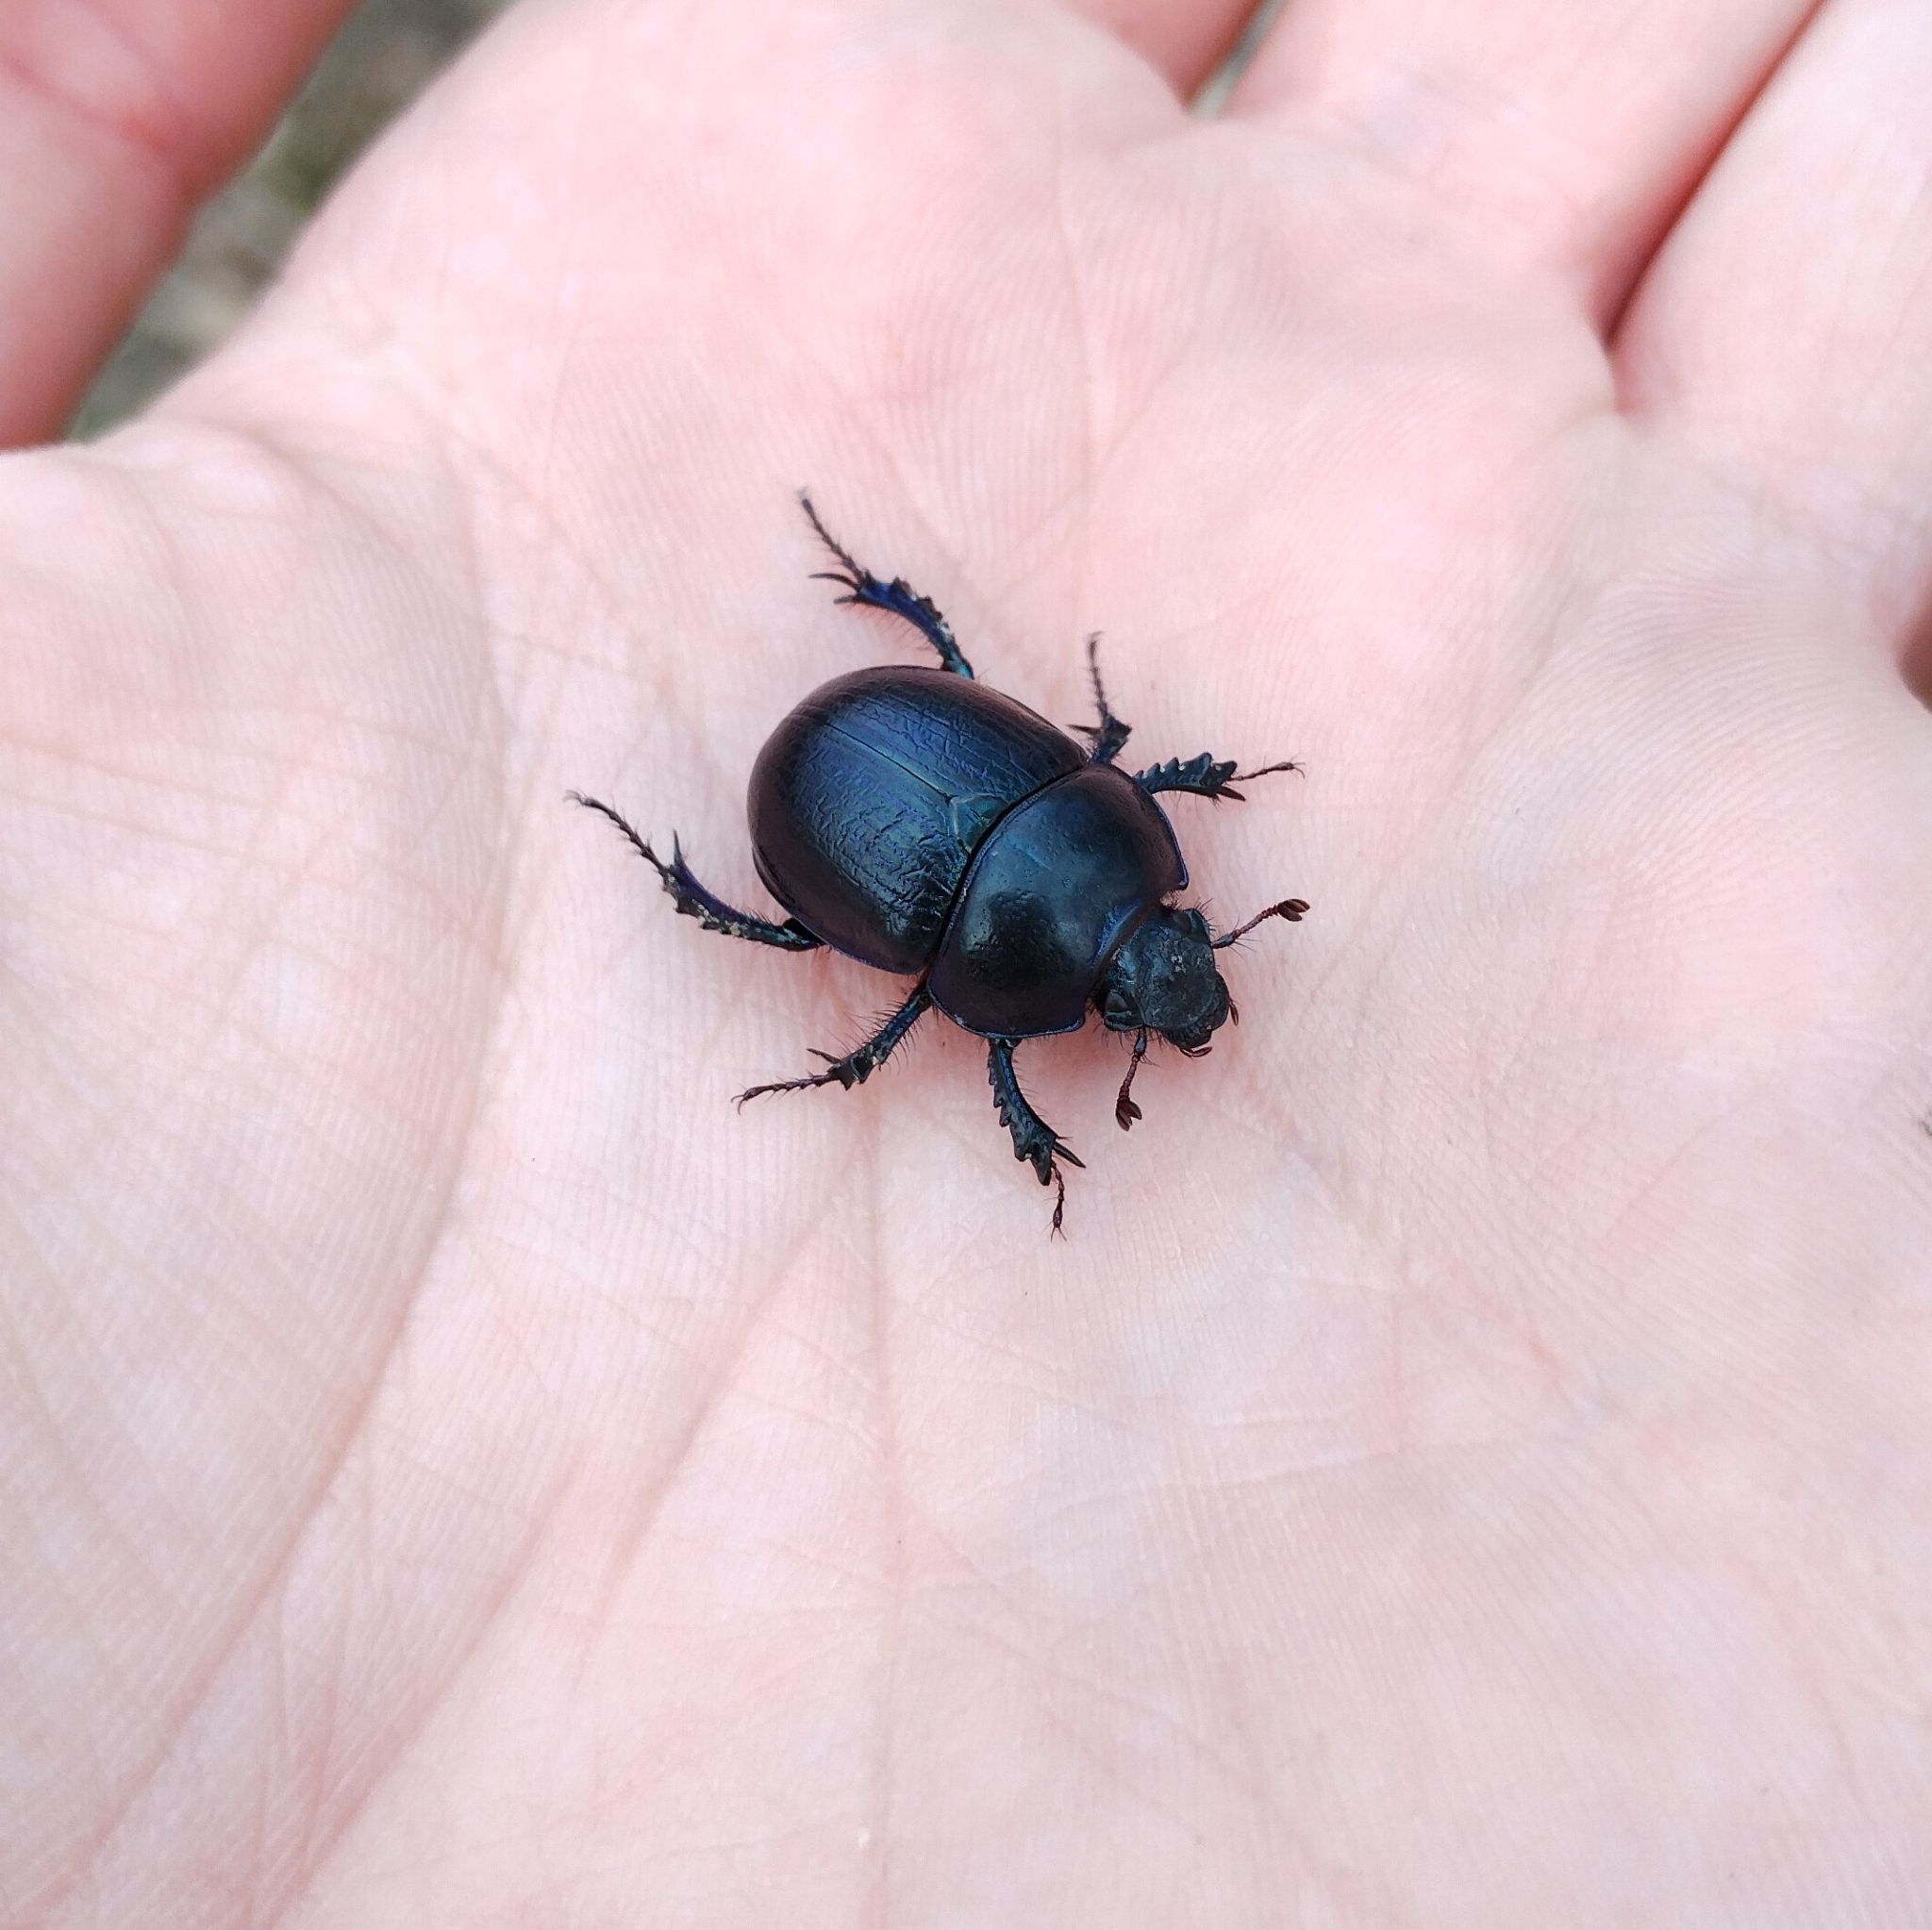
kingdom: Animalia
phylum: Arthropoda
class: Insecta
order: Coleoptera
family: Geotrupidae
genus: Anoplotrupes
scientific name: Anoplotrupes stercorosus
